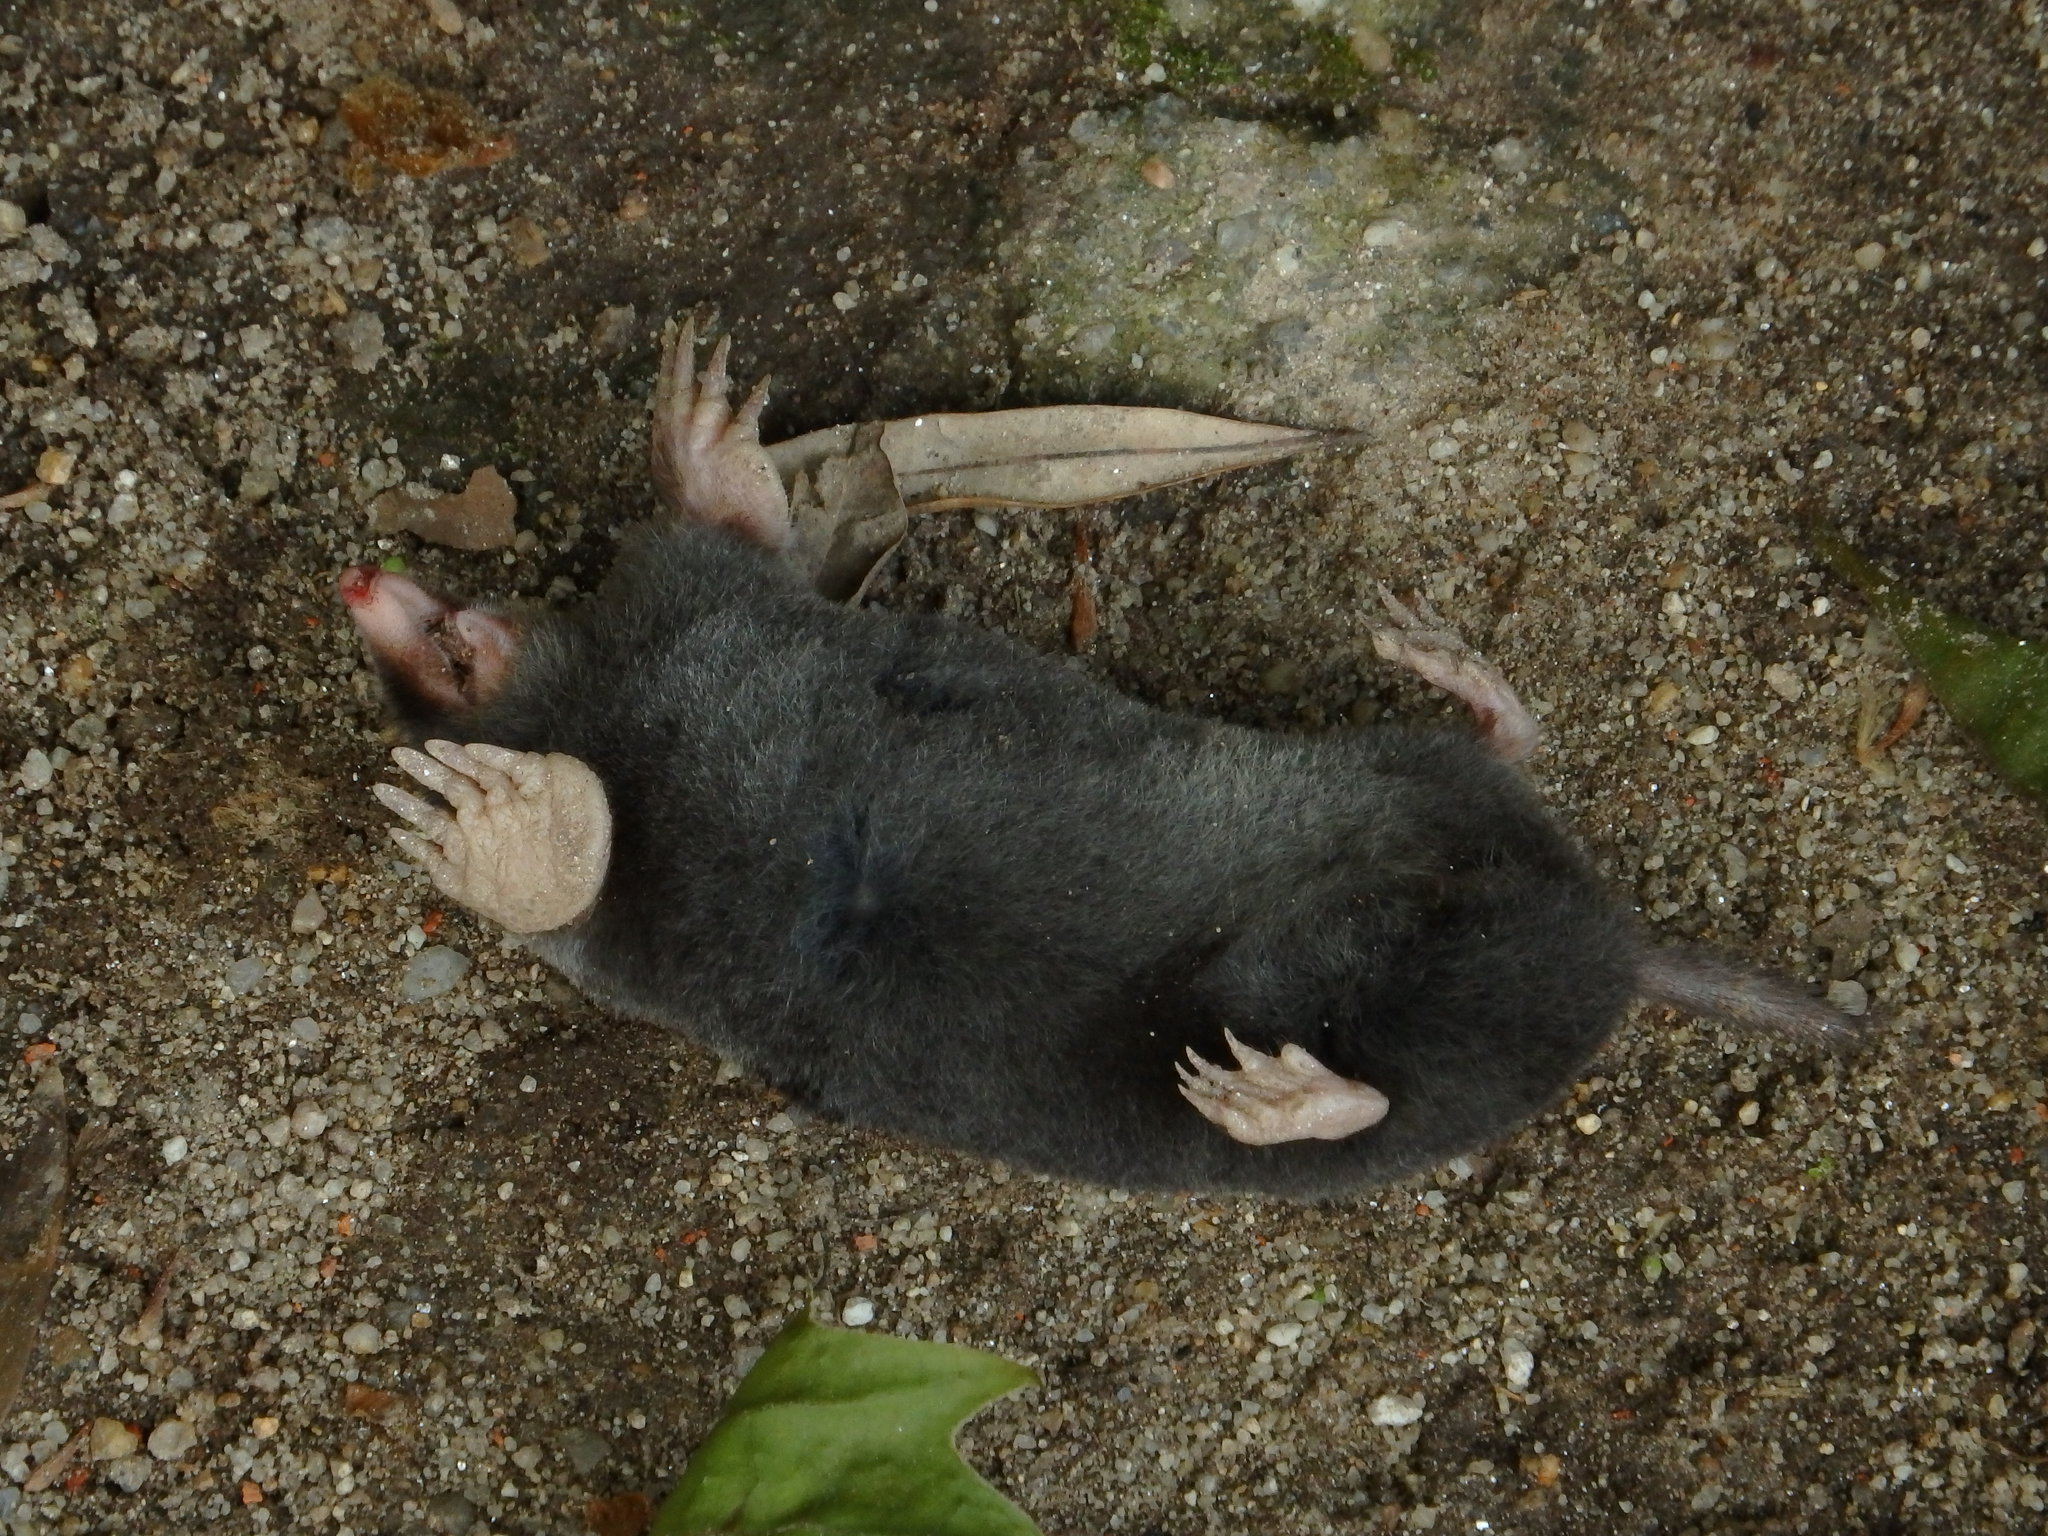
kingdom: Animalia
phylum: Chordata
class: Mammalia
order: Soricomorpha
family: Talpidae
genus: Talpa
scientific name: Talpa occidentalis
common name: Iberian mole
